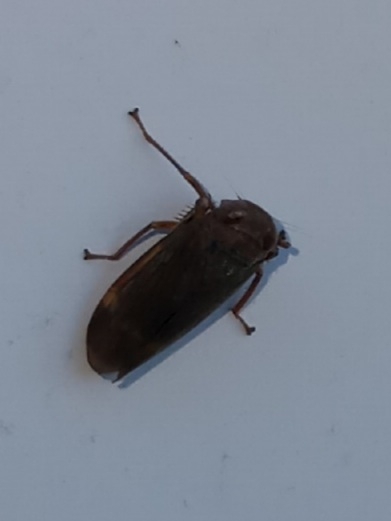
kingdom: Animalia
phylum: Arthropoda
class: Insecta
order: Hemiptera
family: Cicadellidae
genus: Jikradia
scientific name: Jikradia olitoria
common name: Coppery leafhopper
